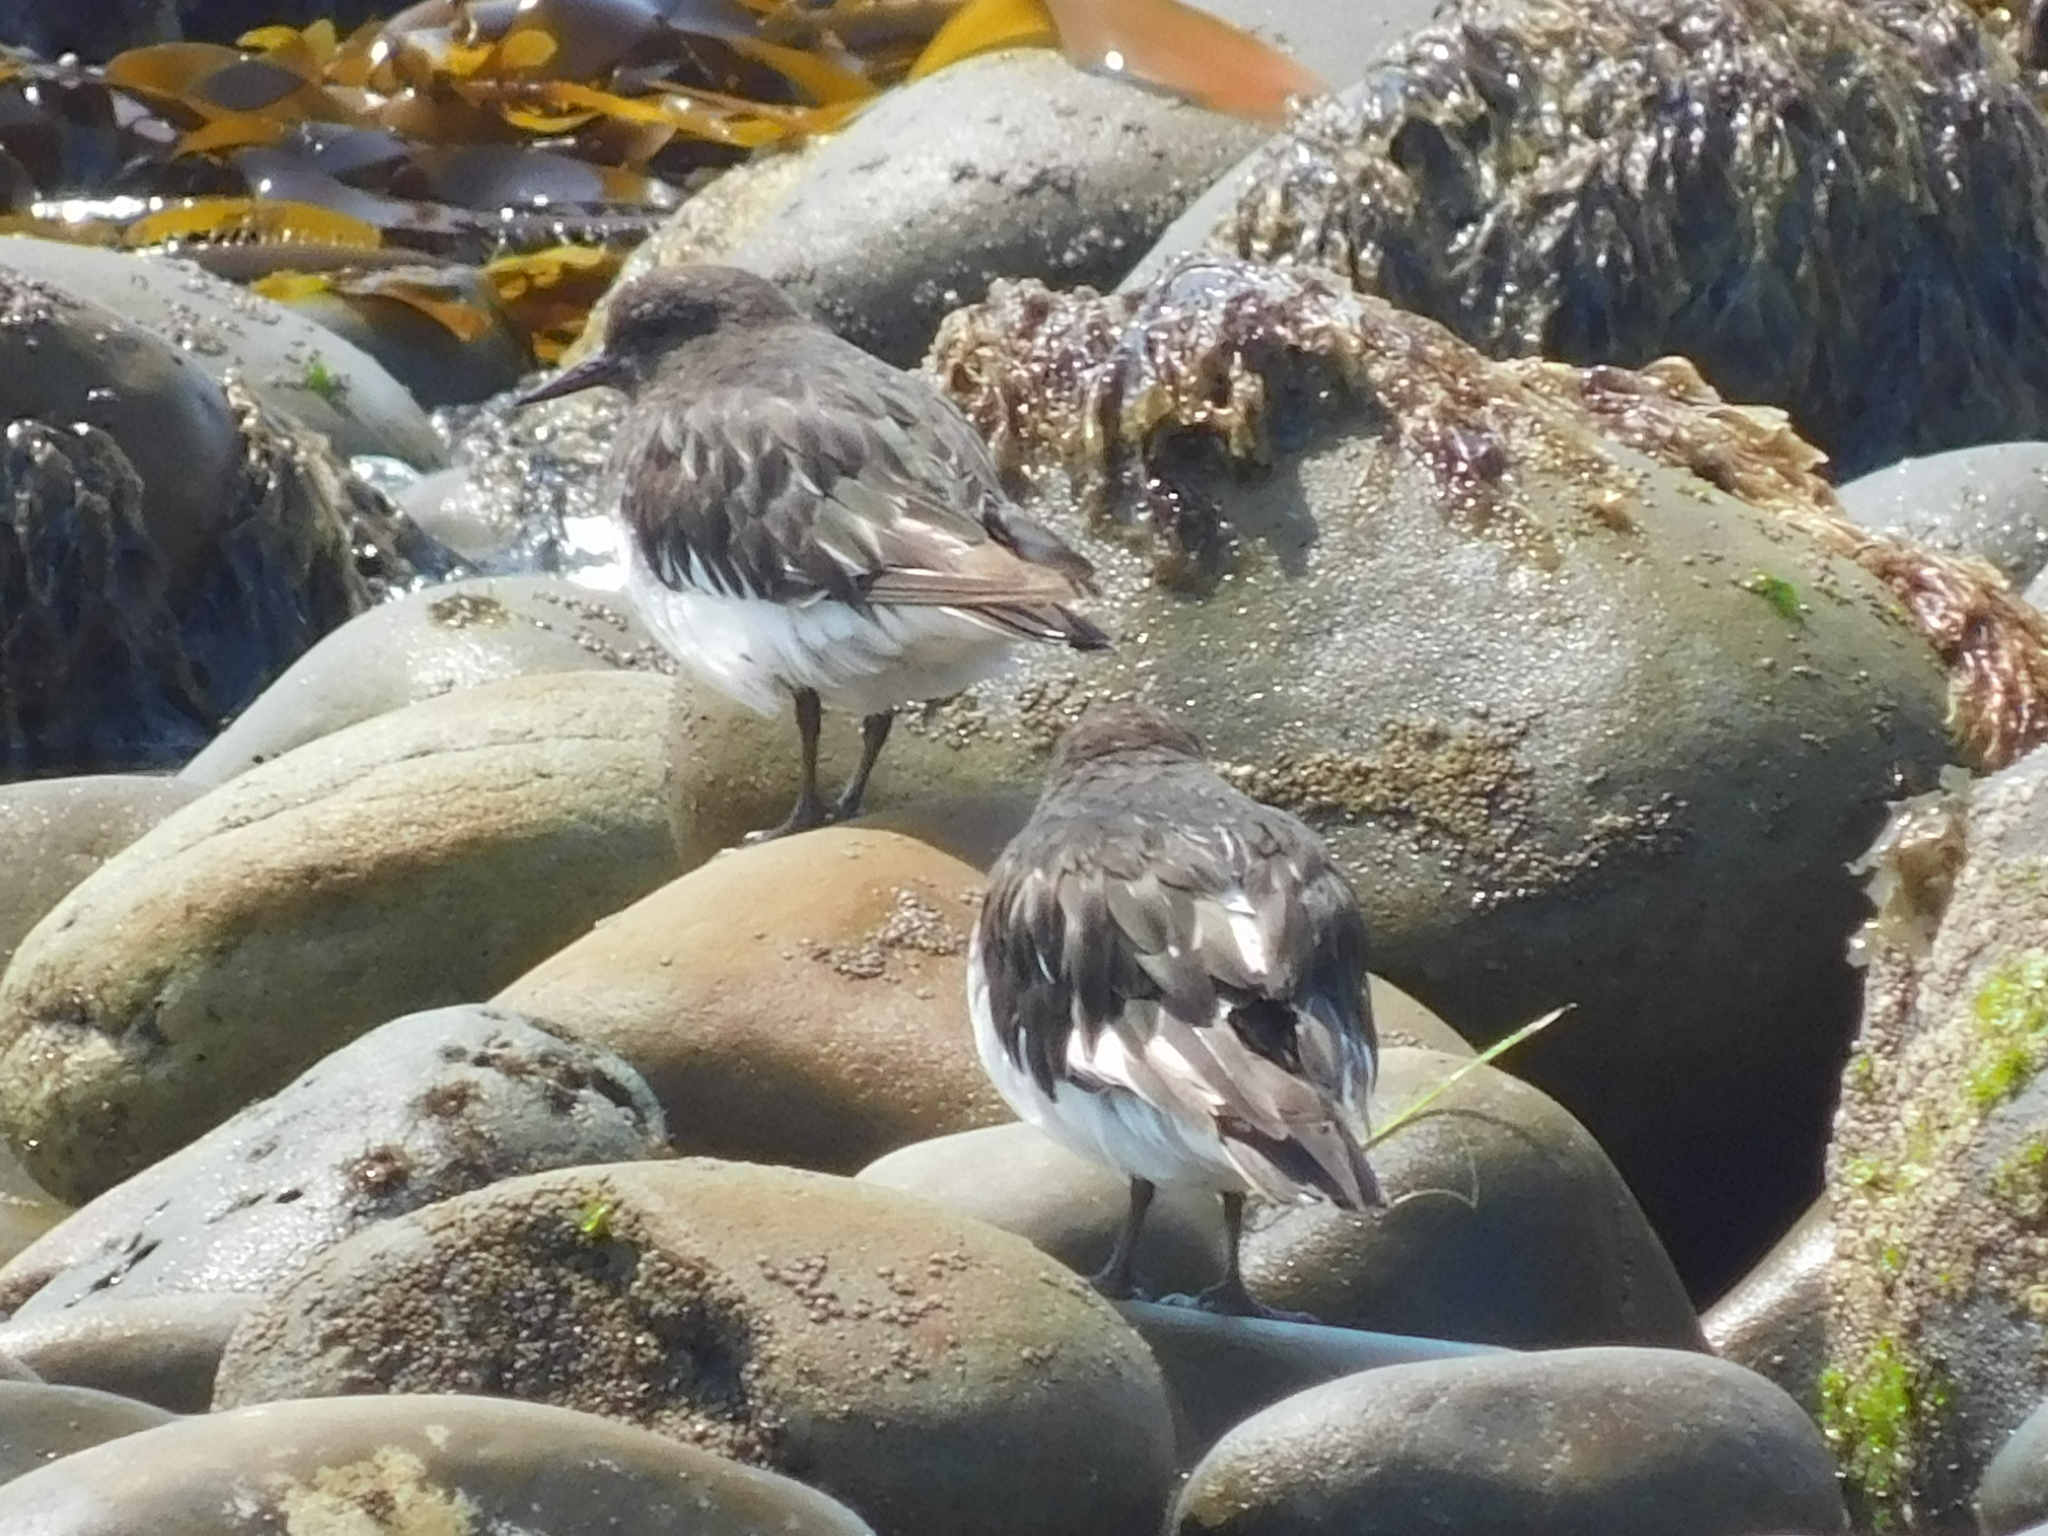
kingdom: Animalia
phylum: Chordata
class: Aves
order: Charadriiformes
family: Scolopacidae
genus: Arenaria
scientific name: Arenaria melanocephala
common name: Black turnstone
